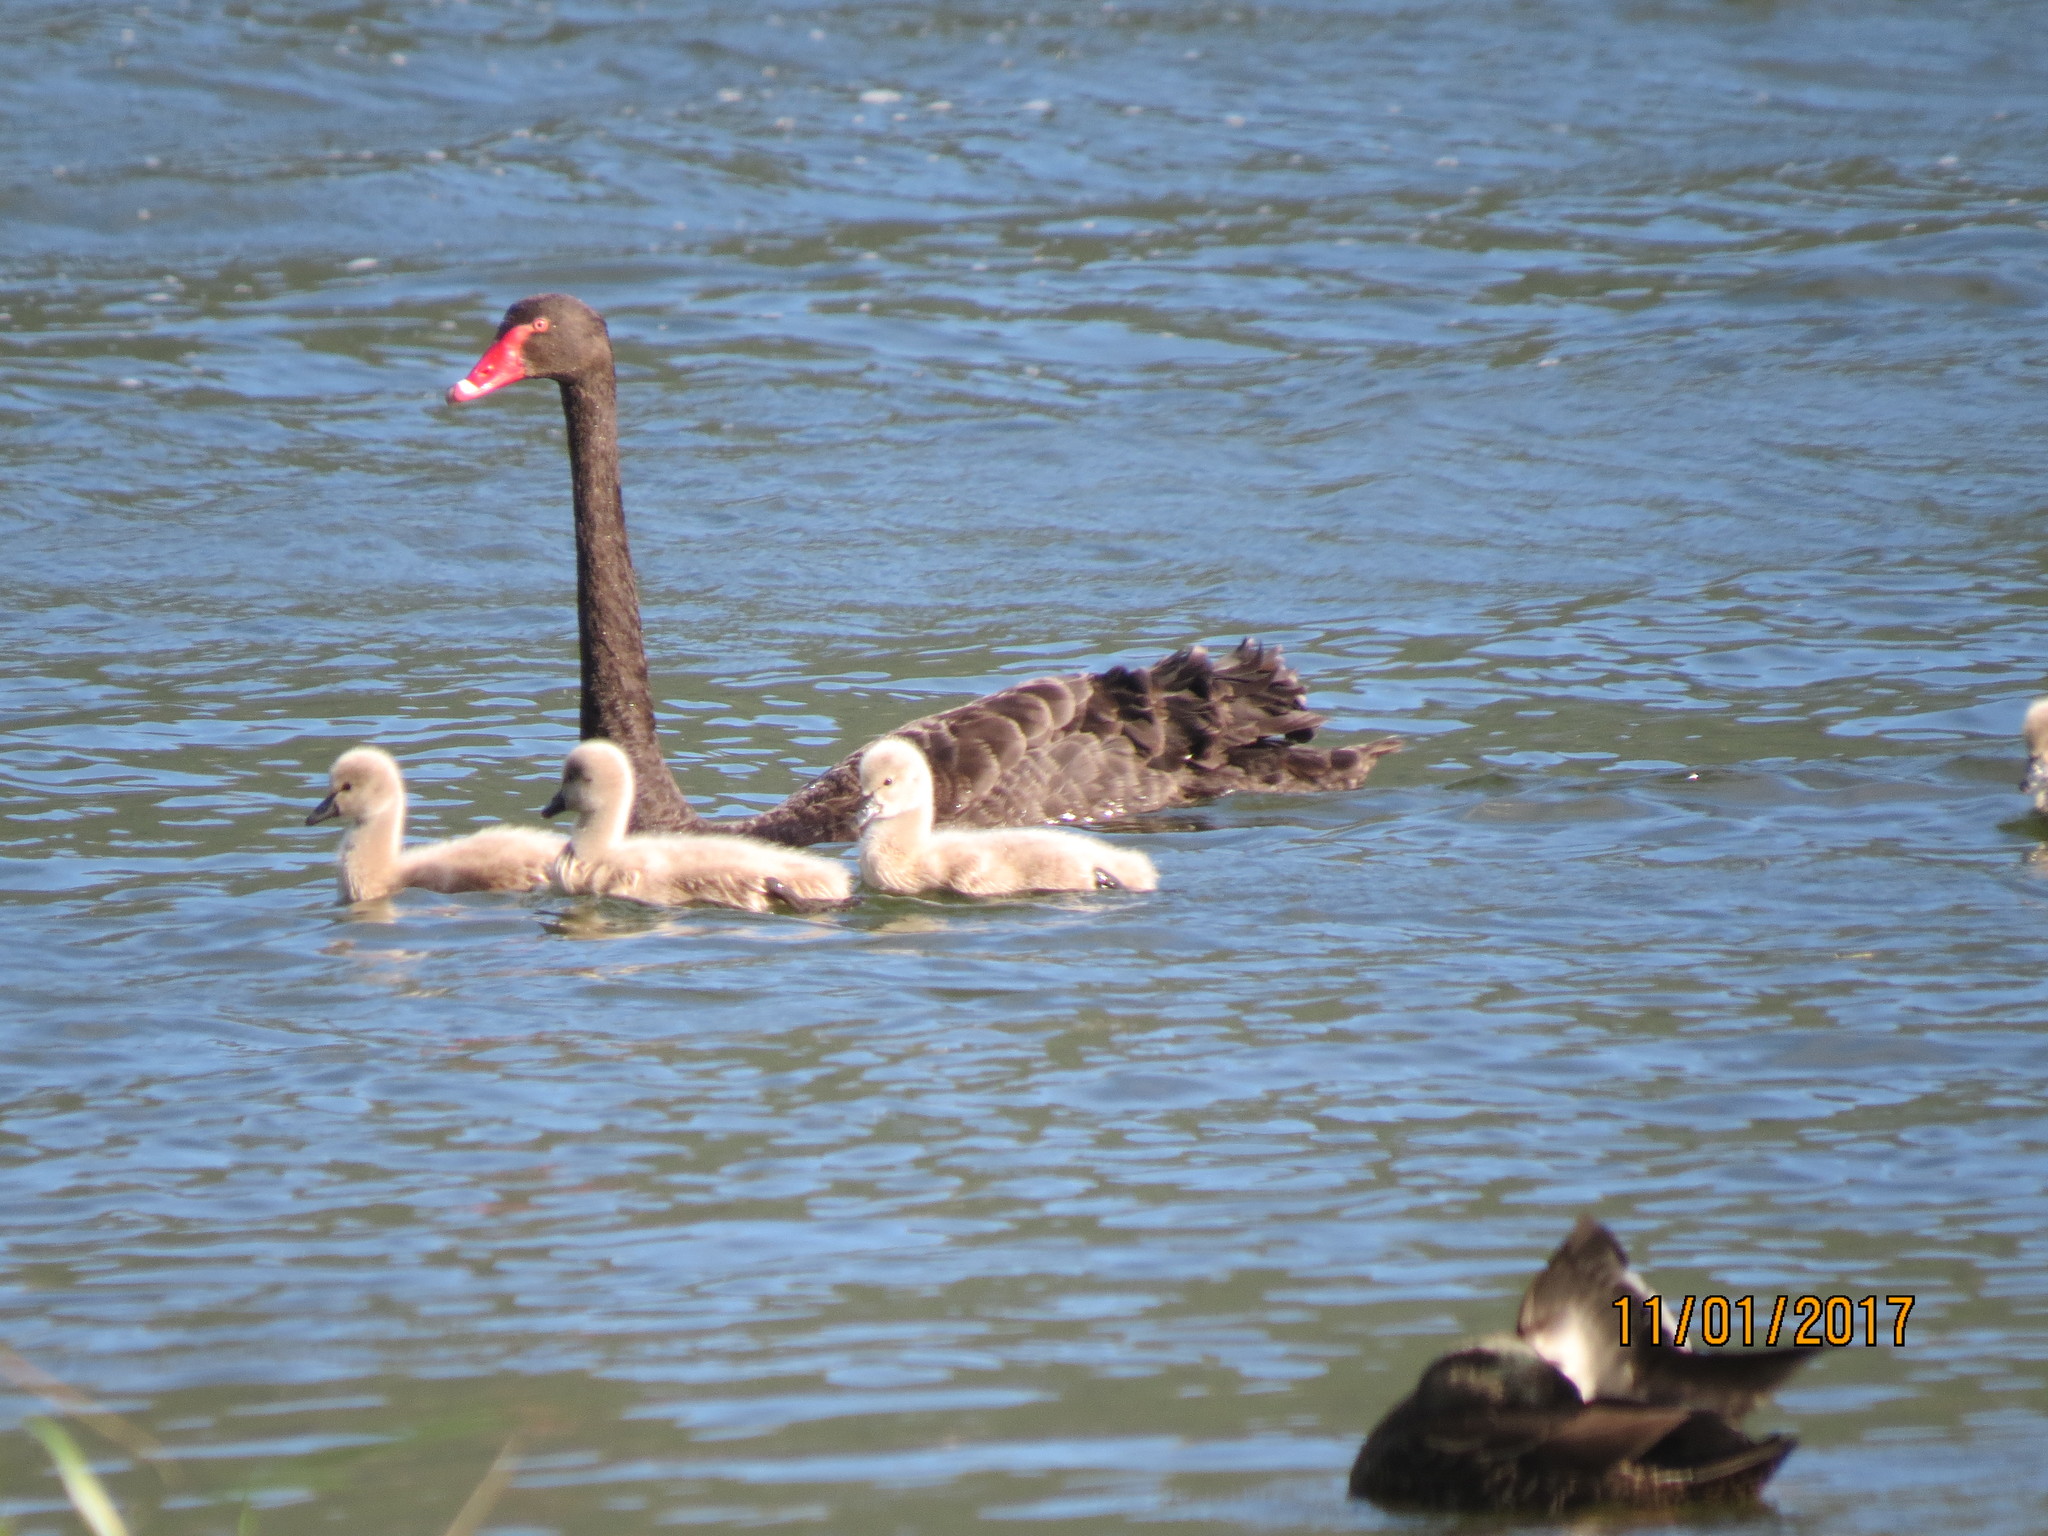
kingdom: Animalia
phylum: Chordata
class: Aves
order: Anseriformes
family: Anatidae
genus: Cygnus
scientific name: Cygnus atratus
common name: Black swan
